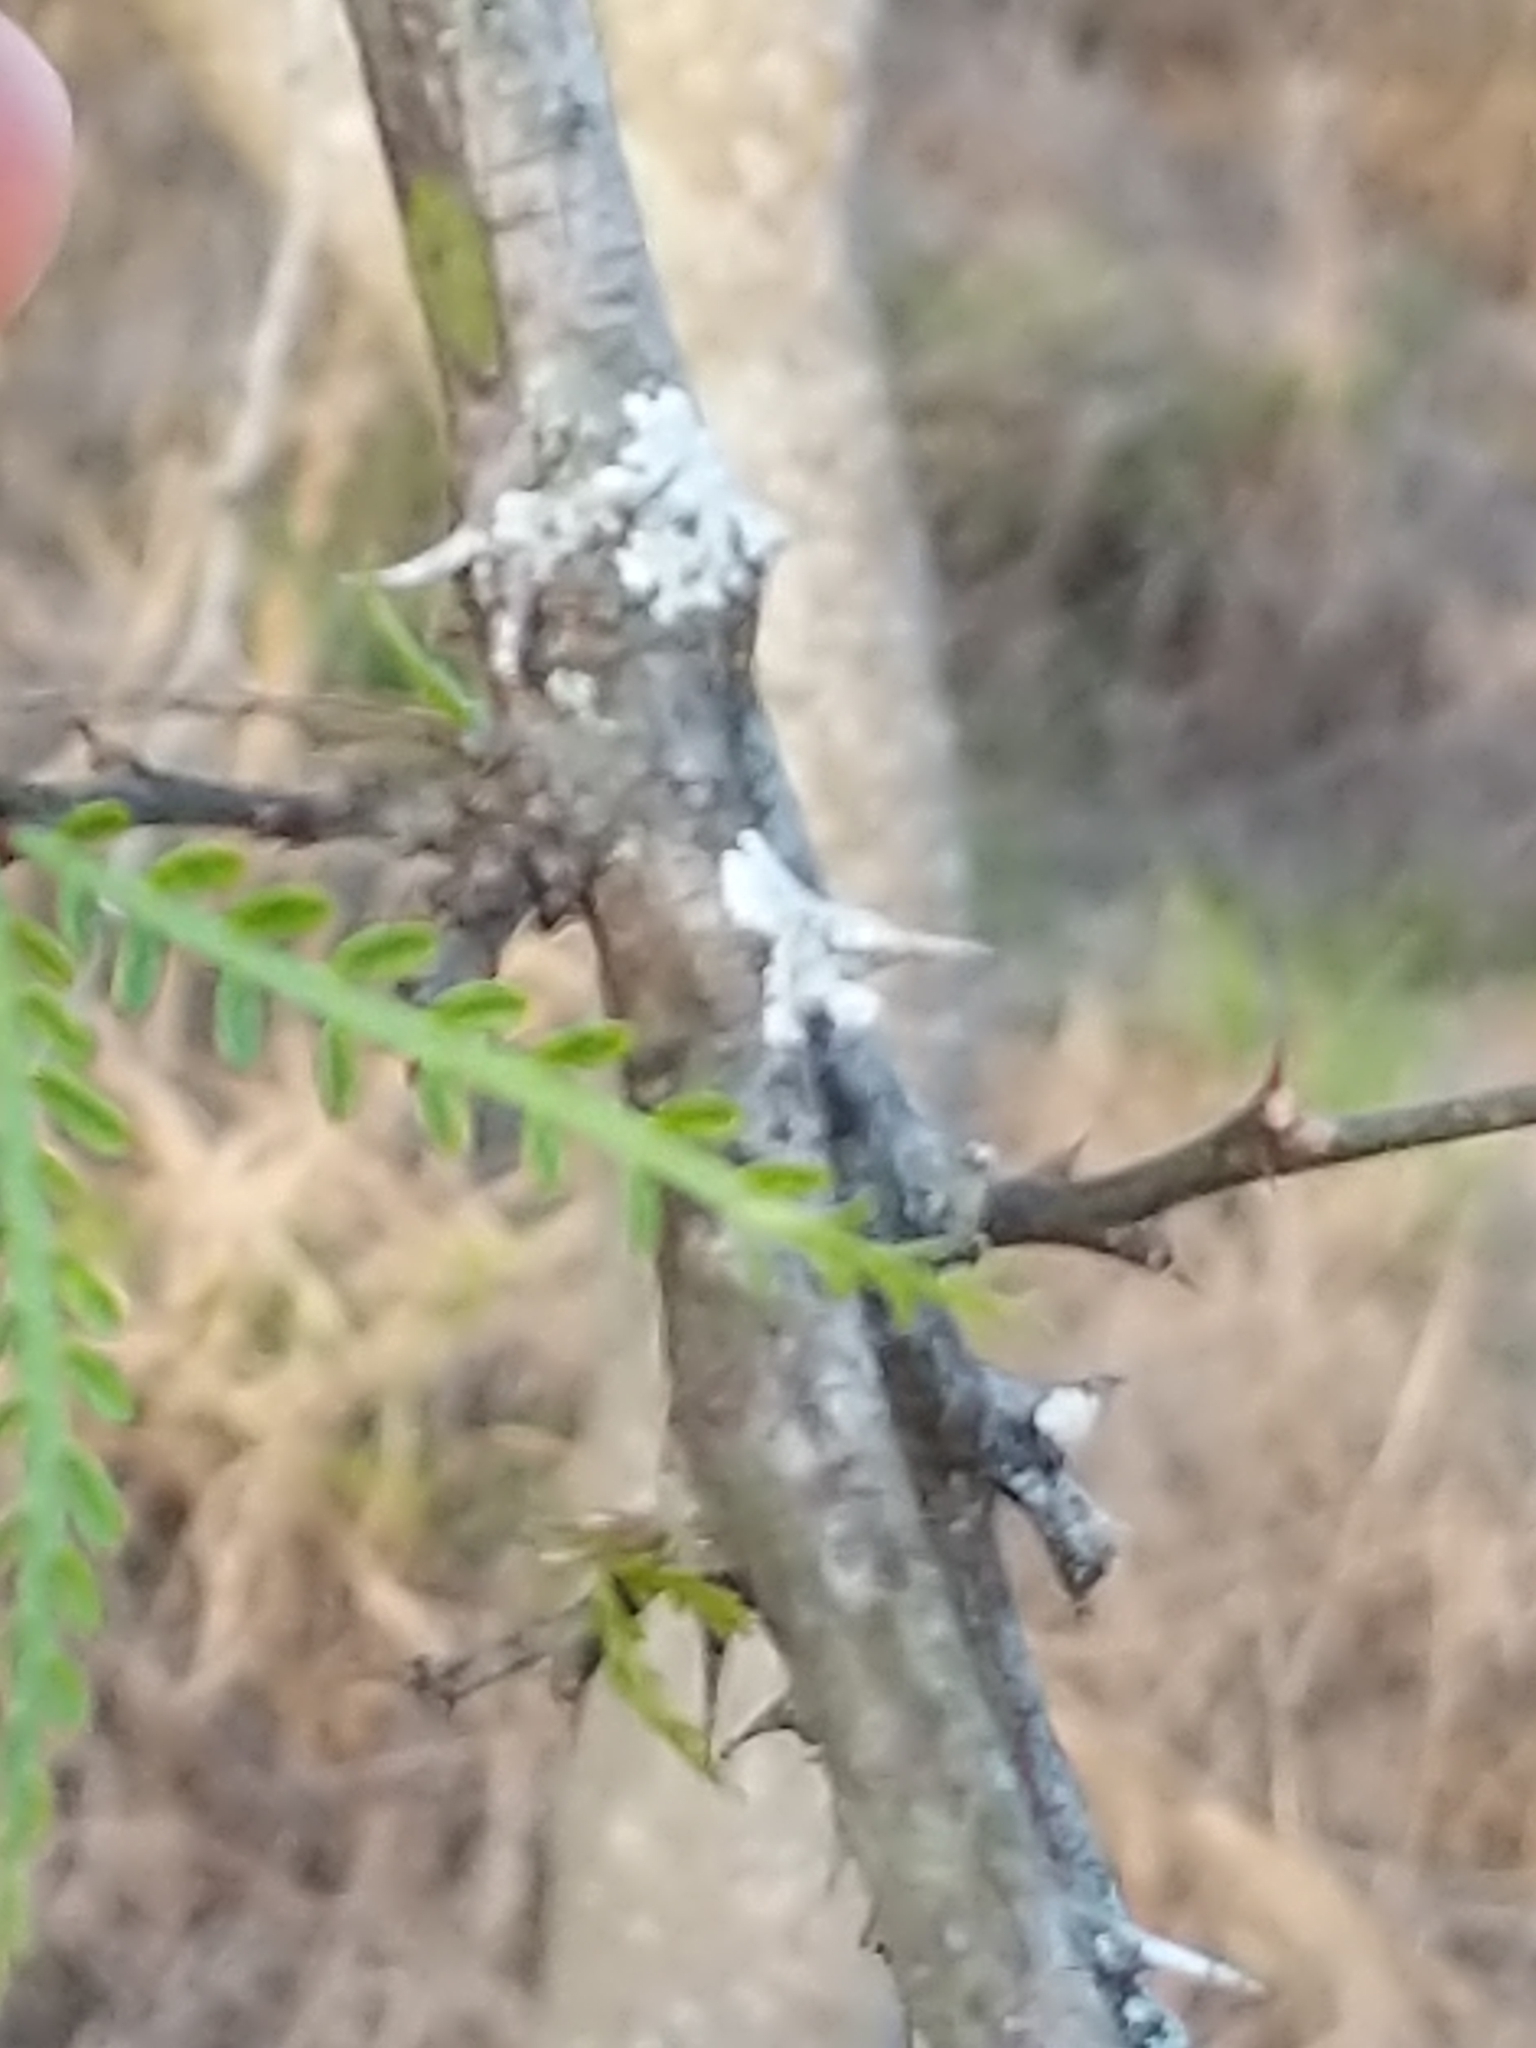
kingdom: Plantae
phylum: Tracheophyta
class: Magnoliopsida
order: Fabales
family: Fabaceae
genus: Parkinsonia
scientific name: Parkinsonia aculeata
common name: Jerusalem thorn
